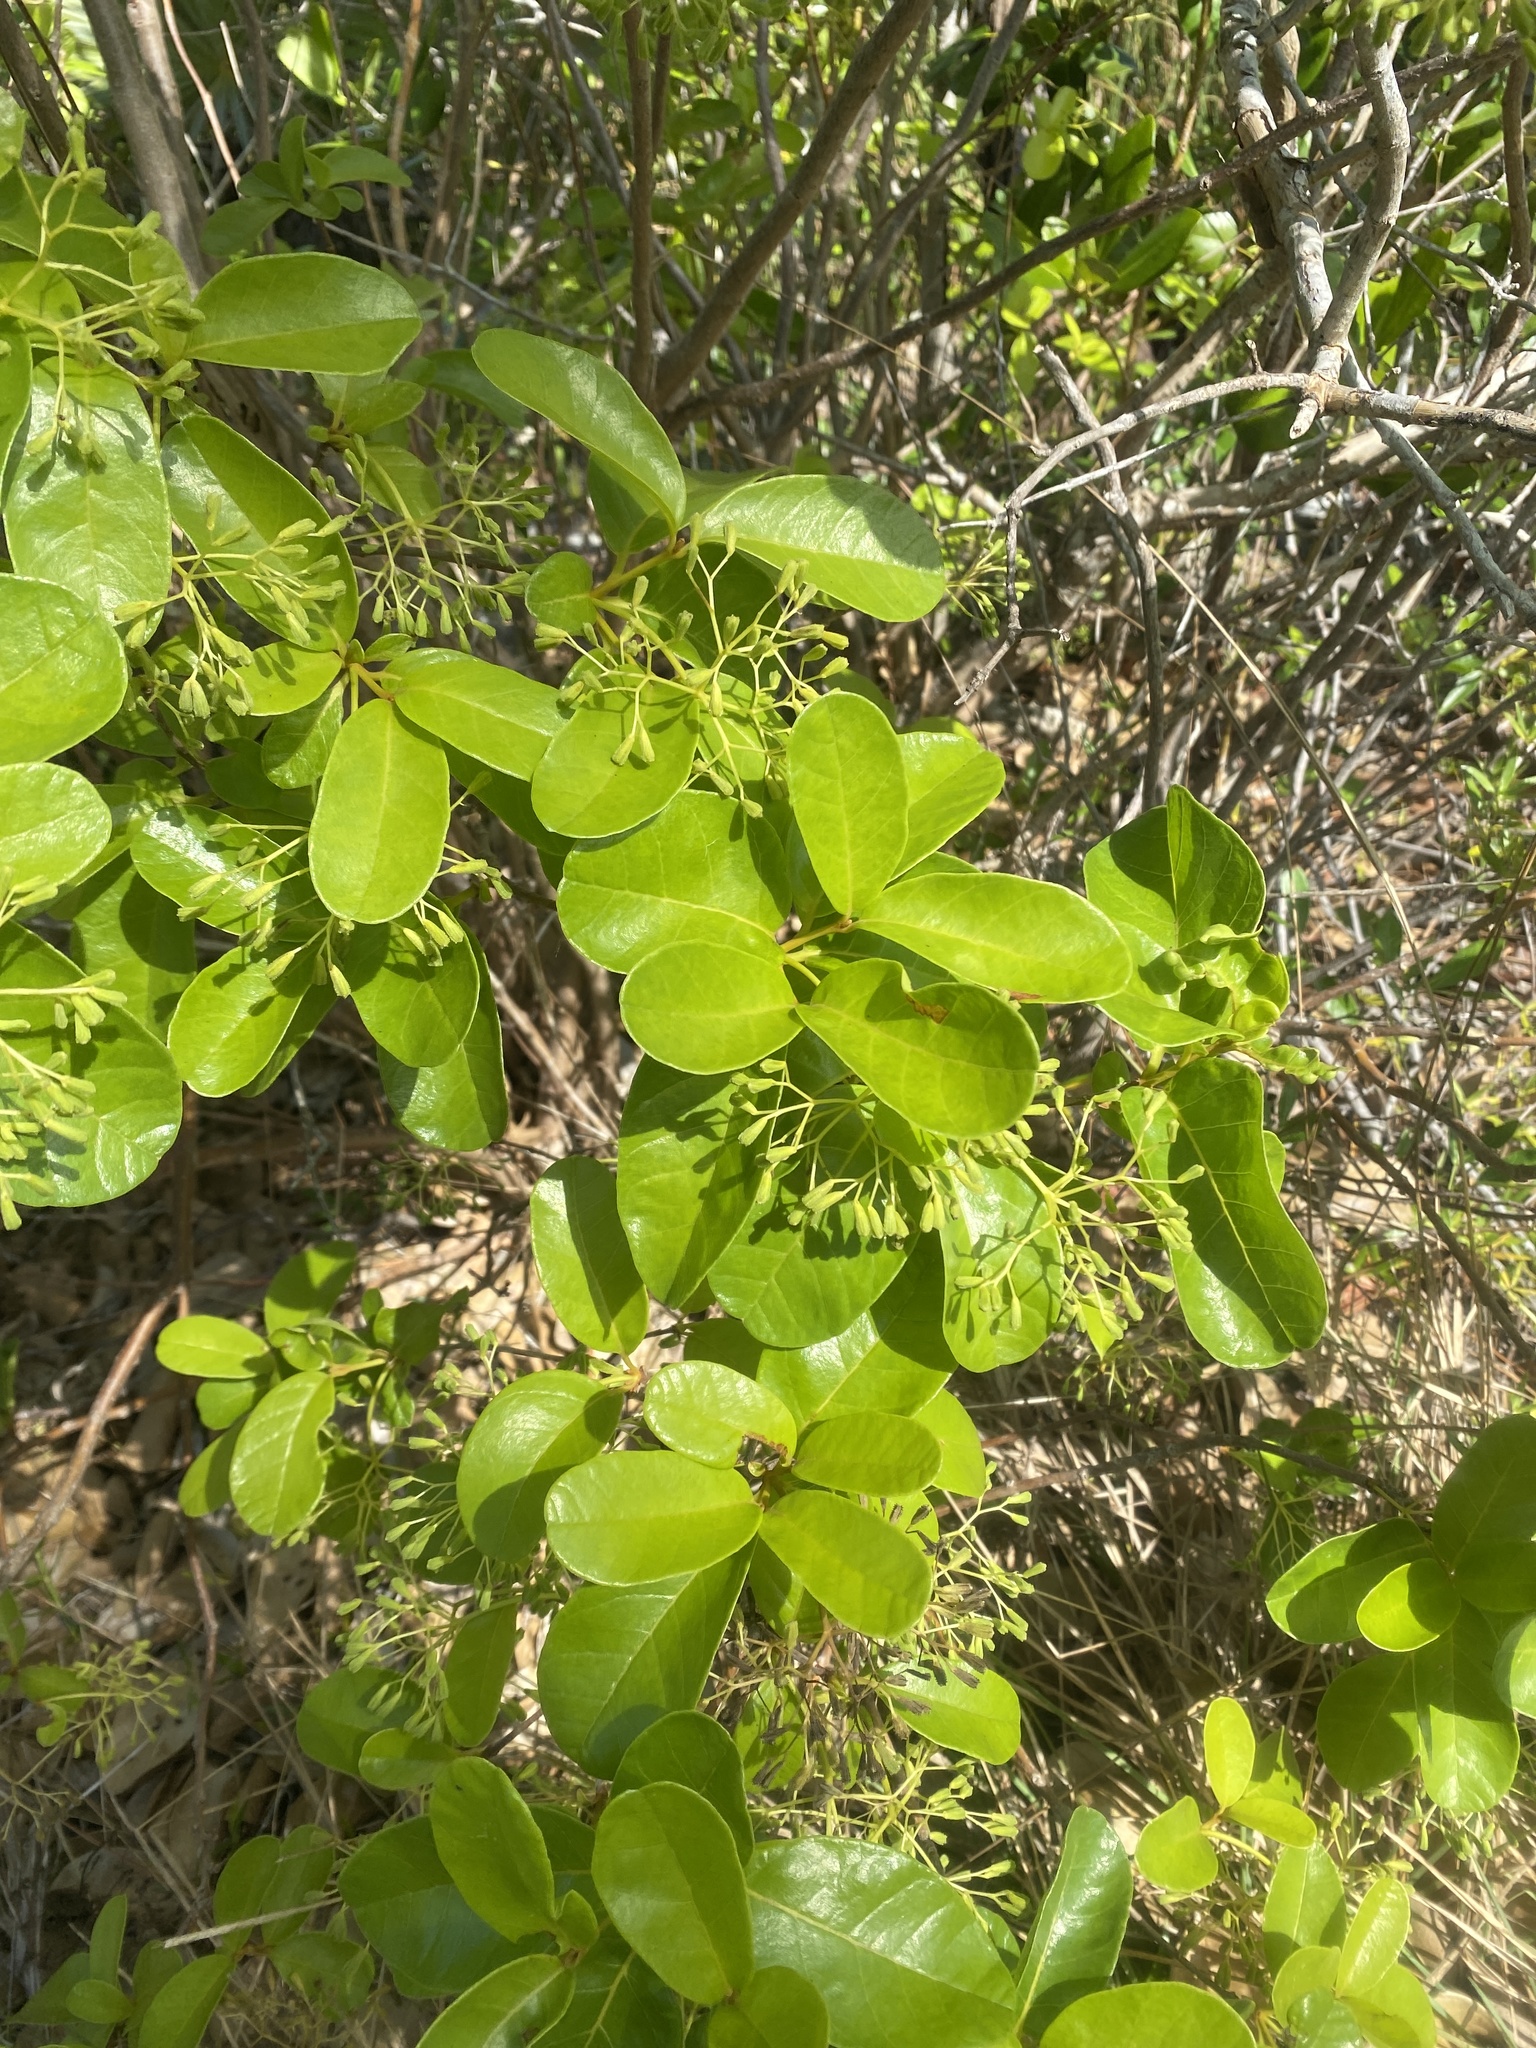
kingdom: Plantae
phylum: Tracheophyta
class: Magnoliopsida
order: Caryophyllales
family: Nyctaginaceae
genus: Pisonia
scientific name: Pisonia rotundata
